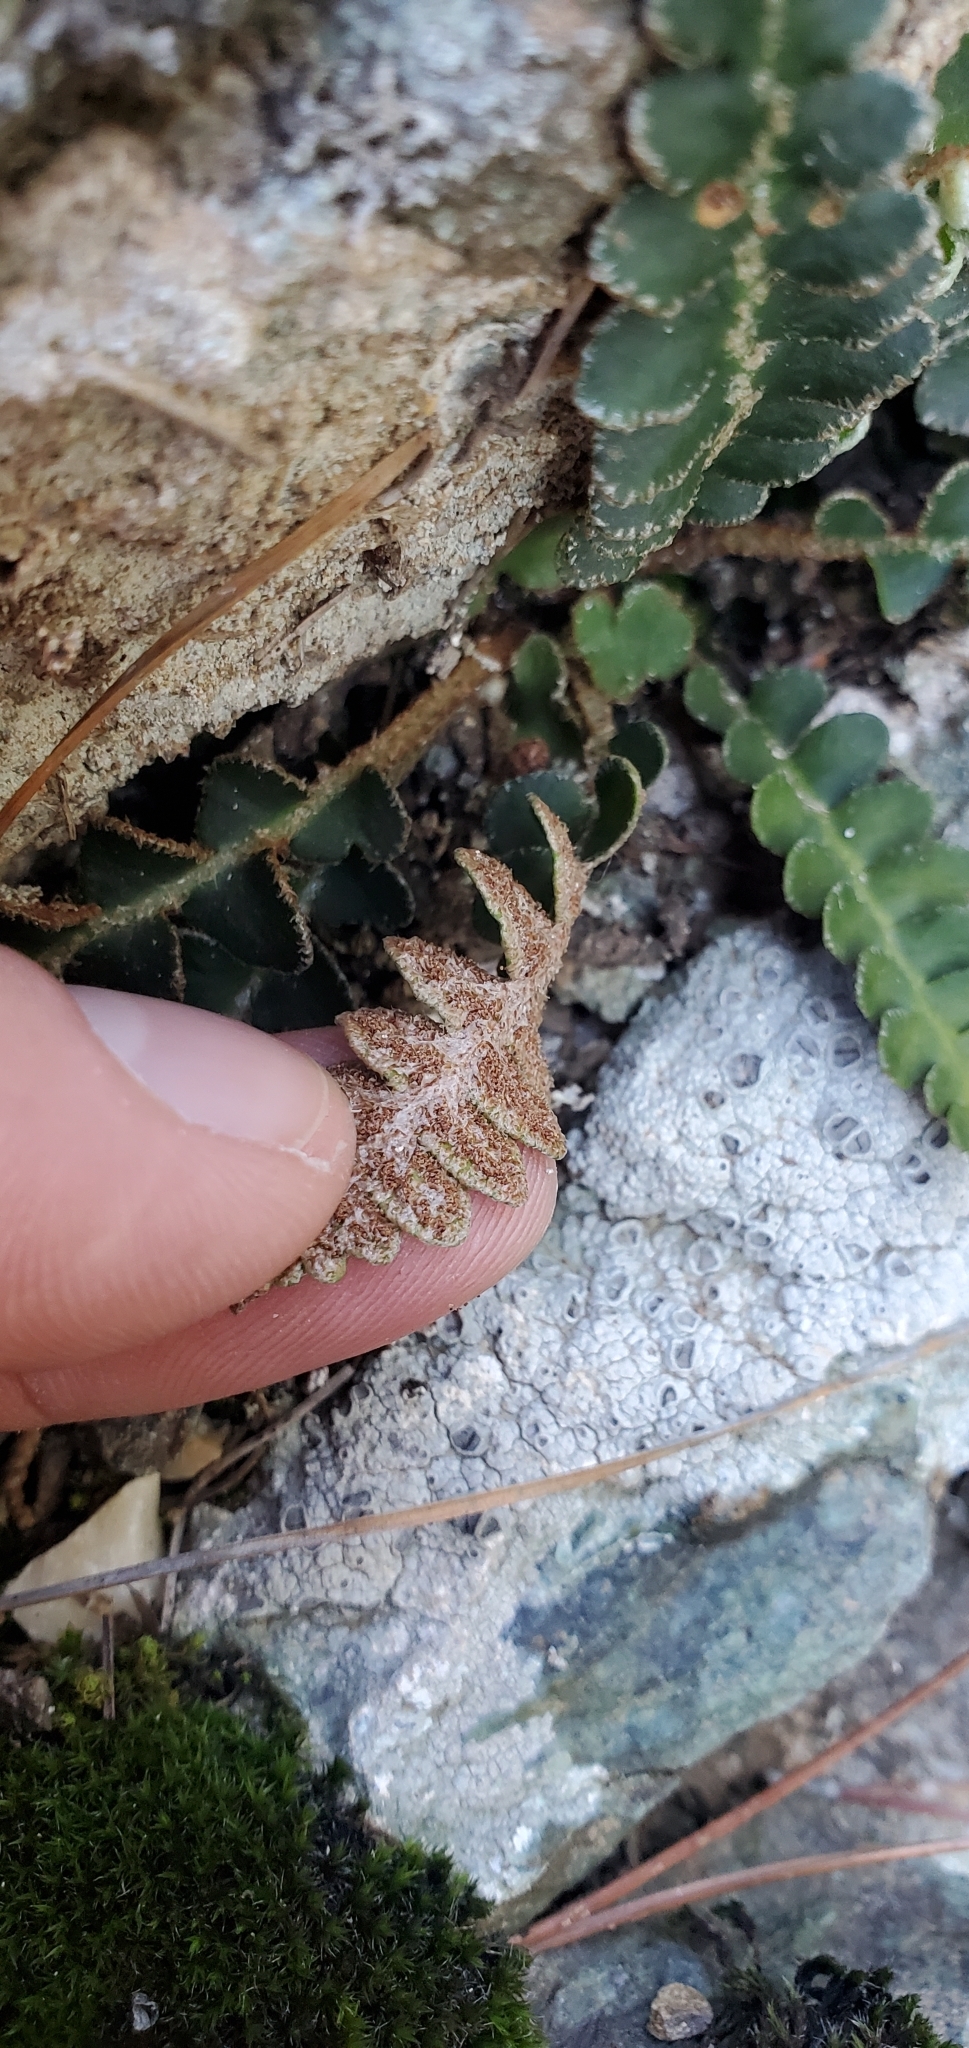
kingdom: Plantae
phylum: Tracheophyta
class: Polypodiopsida
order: Polypodiales
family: Aspleniaceae
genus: Asplenium
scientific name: Asplenium ceterach
